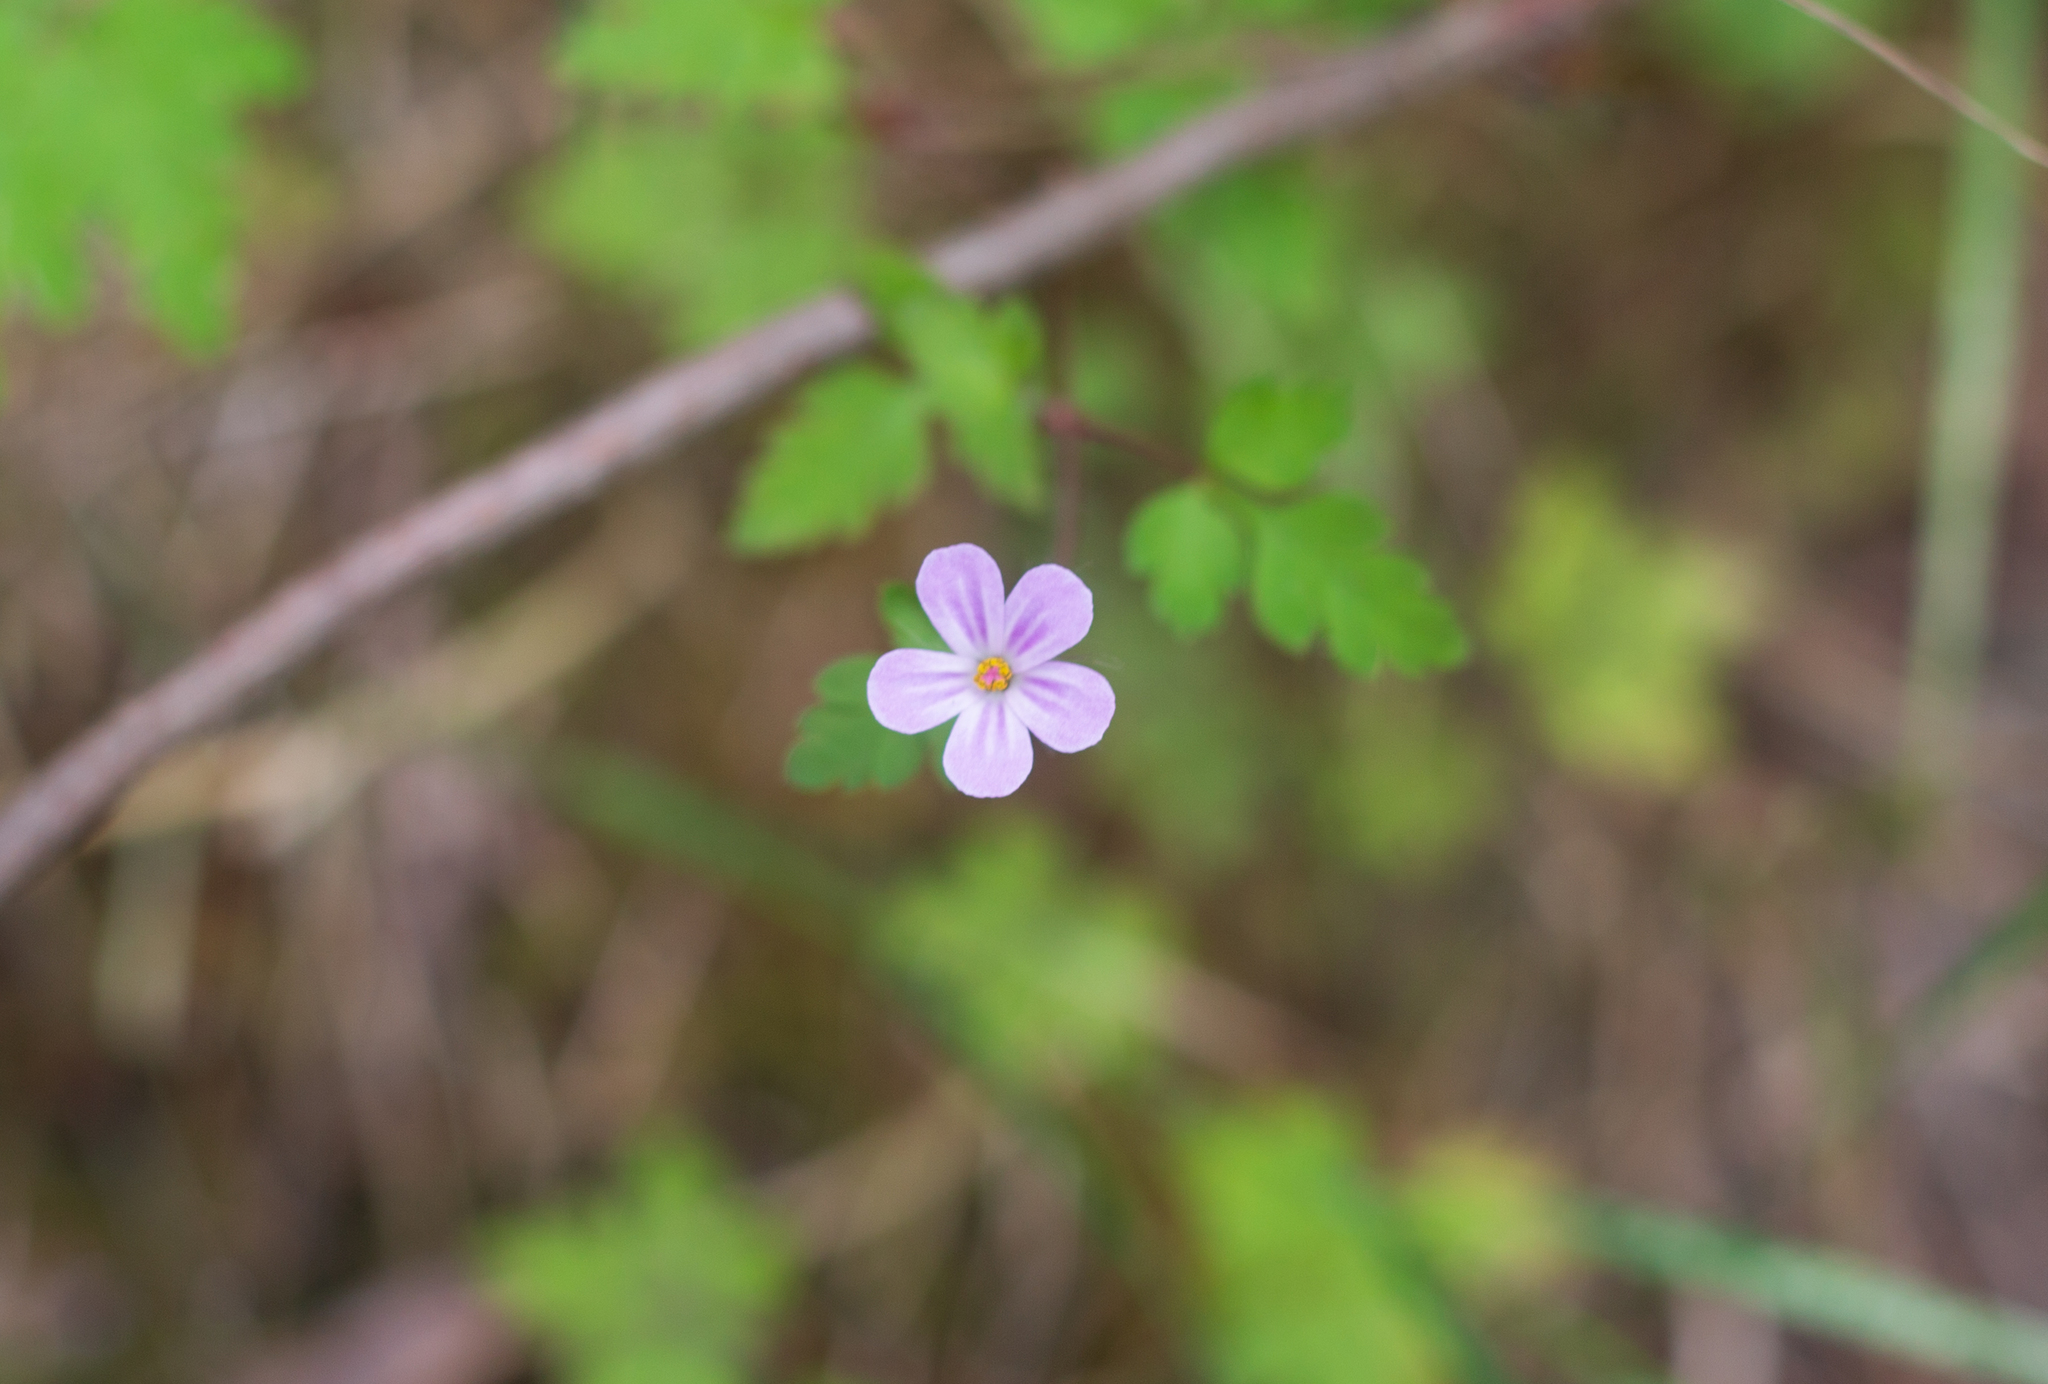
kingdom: Plantae
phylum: Tracheophyta
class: Magnoliopsida
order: Geraniales
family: Geraniaceae
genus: Geranium
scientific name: Geranium robertianum
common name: Herb-robert
